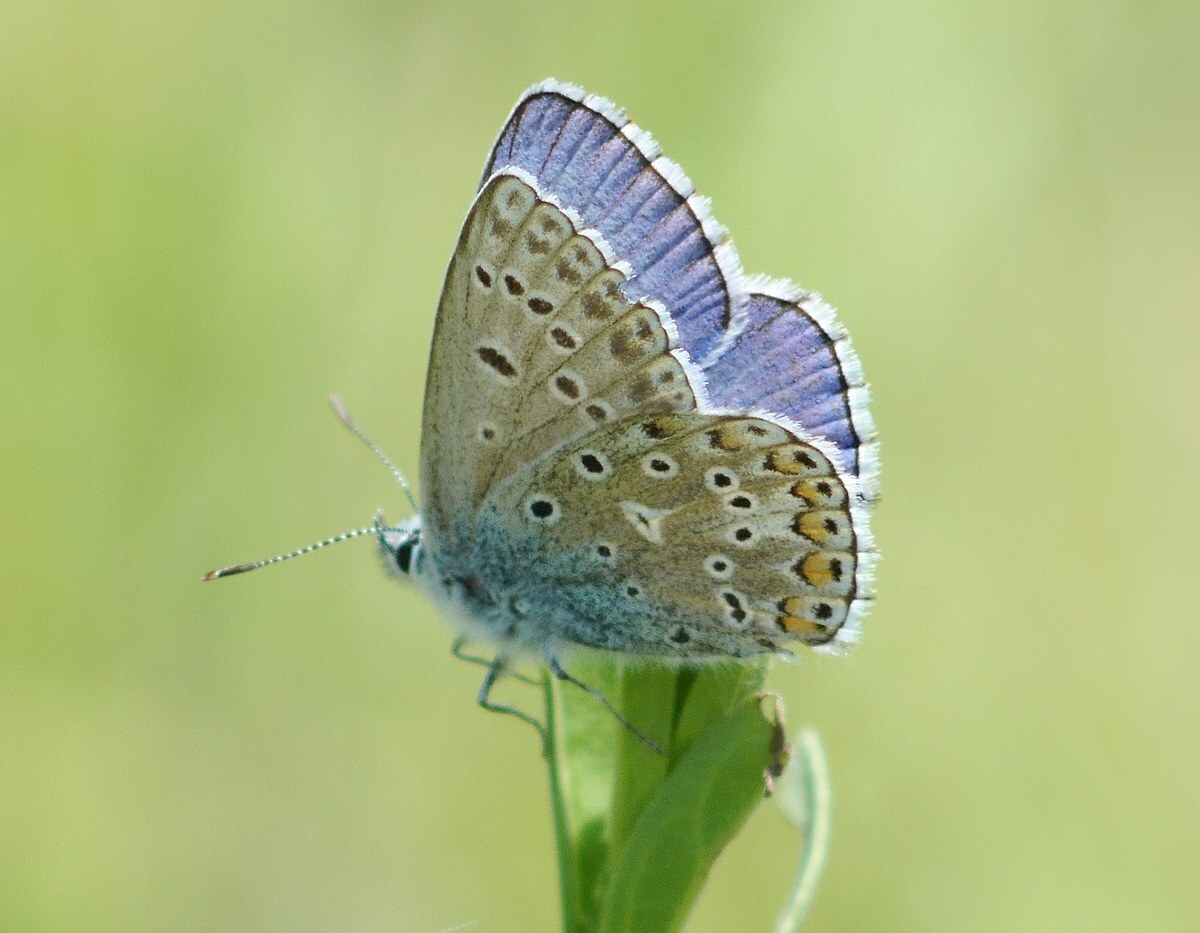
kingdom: Animalia
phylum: Arthropoda
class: Insecta
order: Lepidoptera
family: Lycaenidae
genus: Lysandra
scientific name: Lysandra bellargus
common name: Adonis blue
